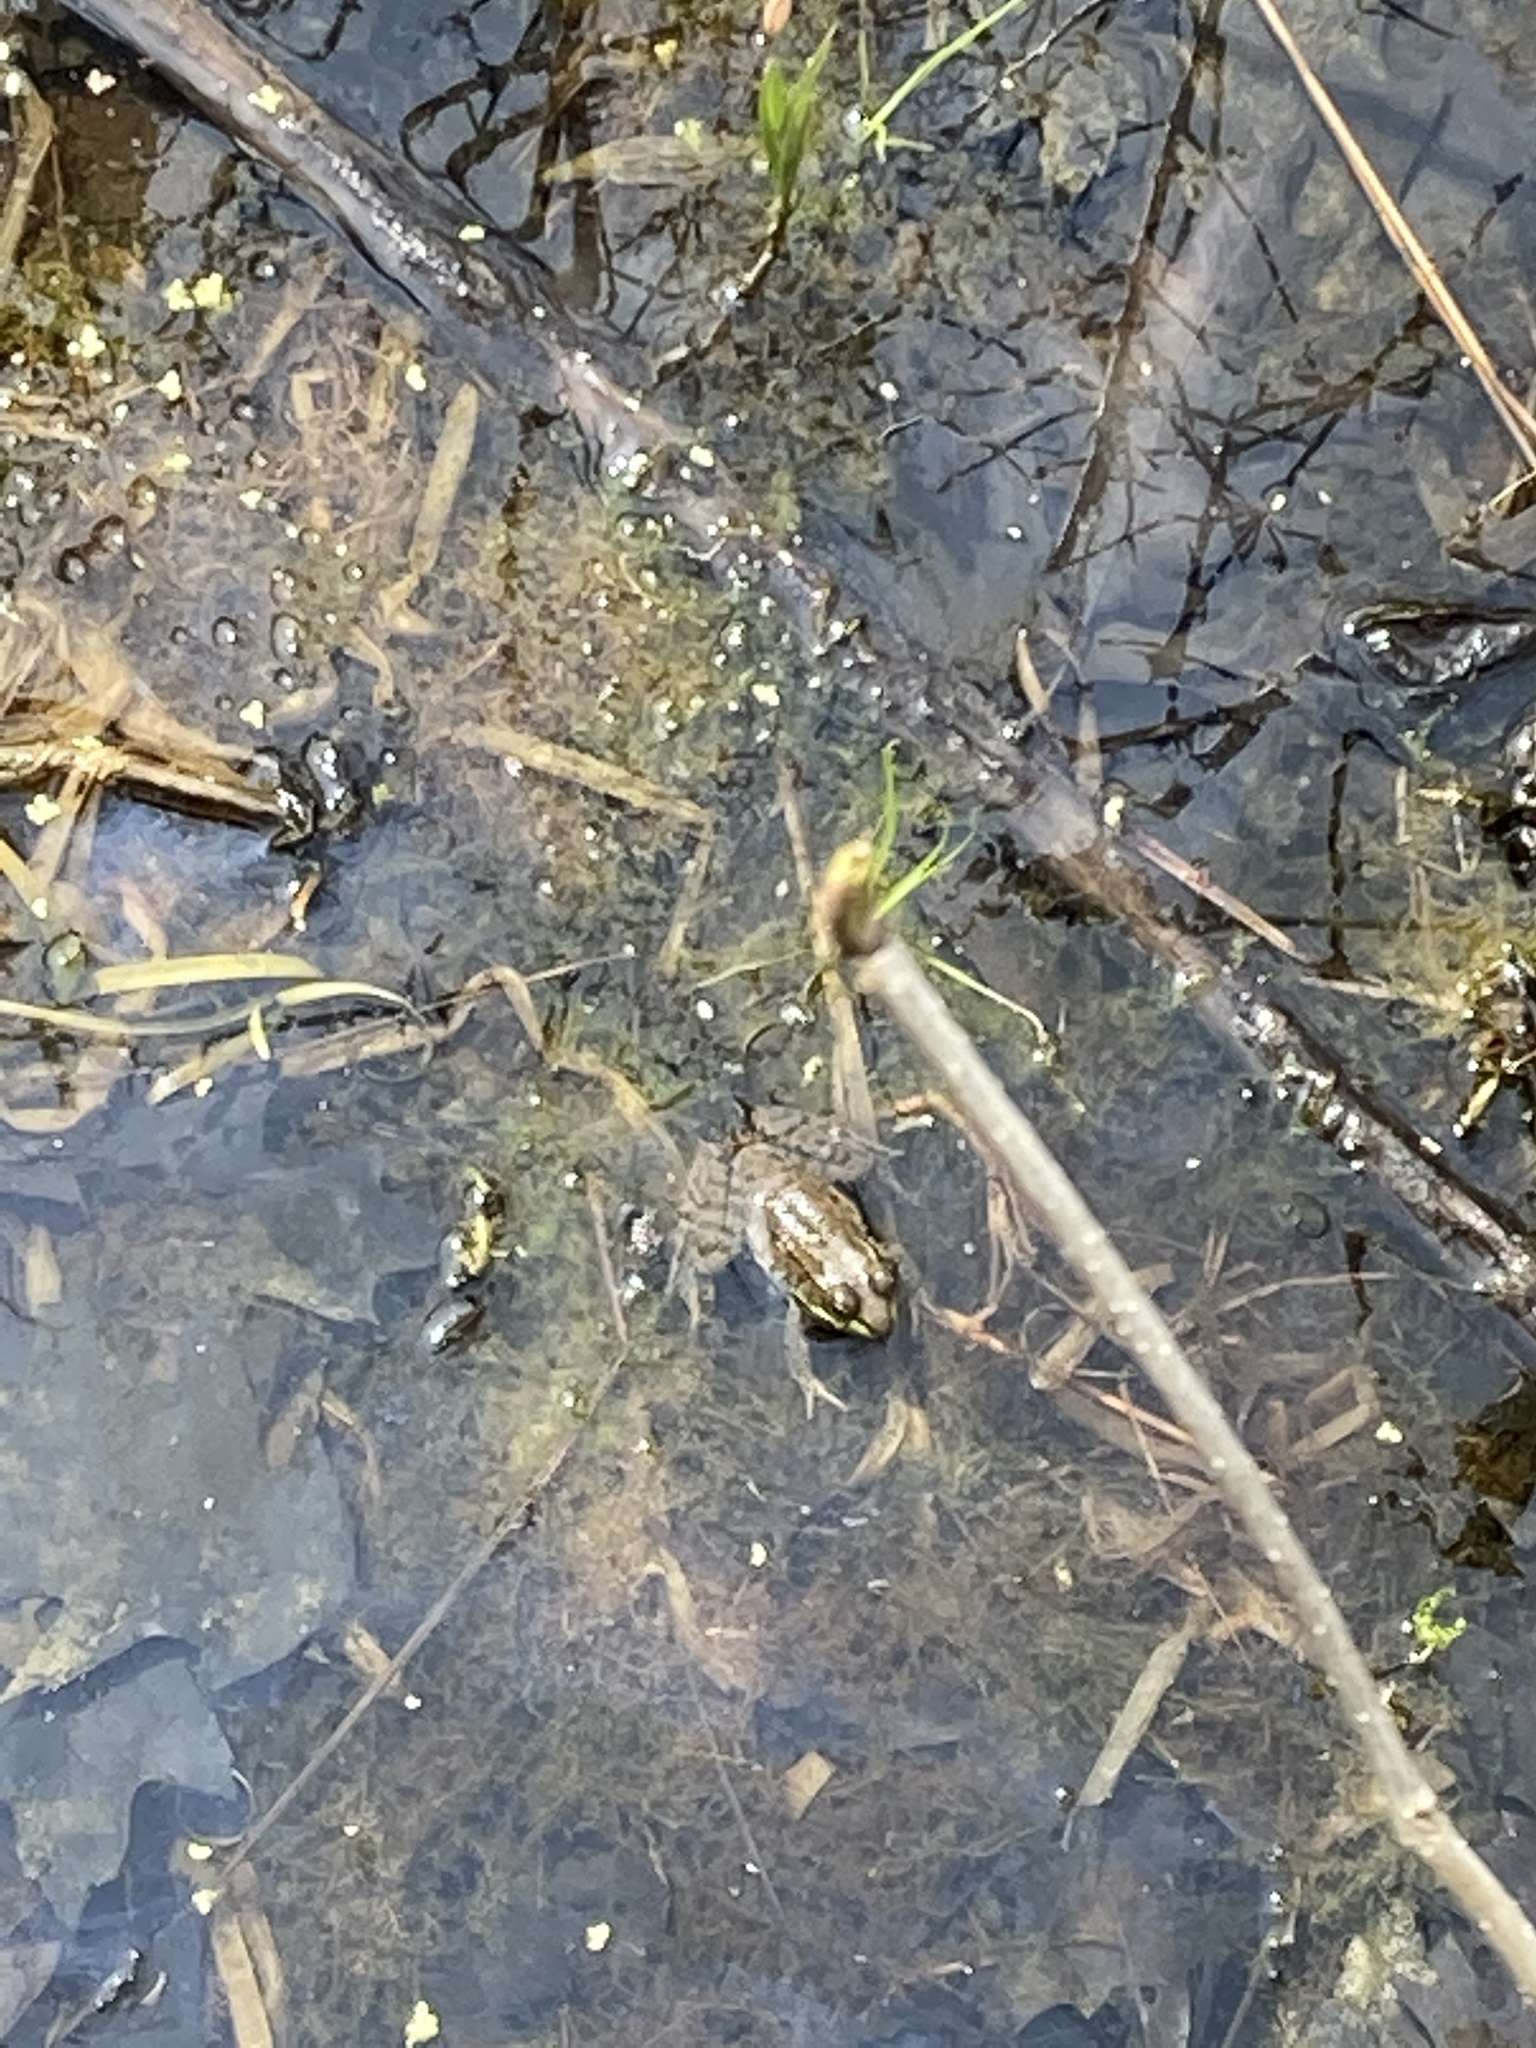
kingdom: Animalia
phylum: Chordata
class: Amphibia
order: Anura
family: Ranidae
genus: Lithobates
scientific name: Lithobates clamitans
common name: Green frog
